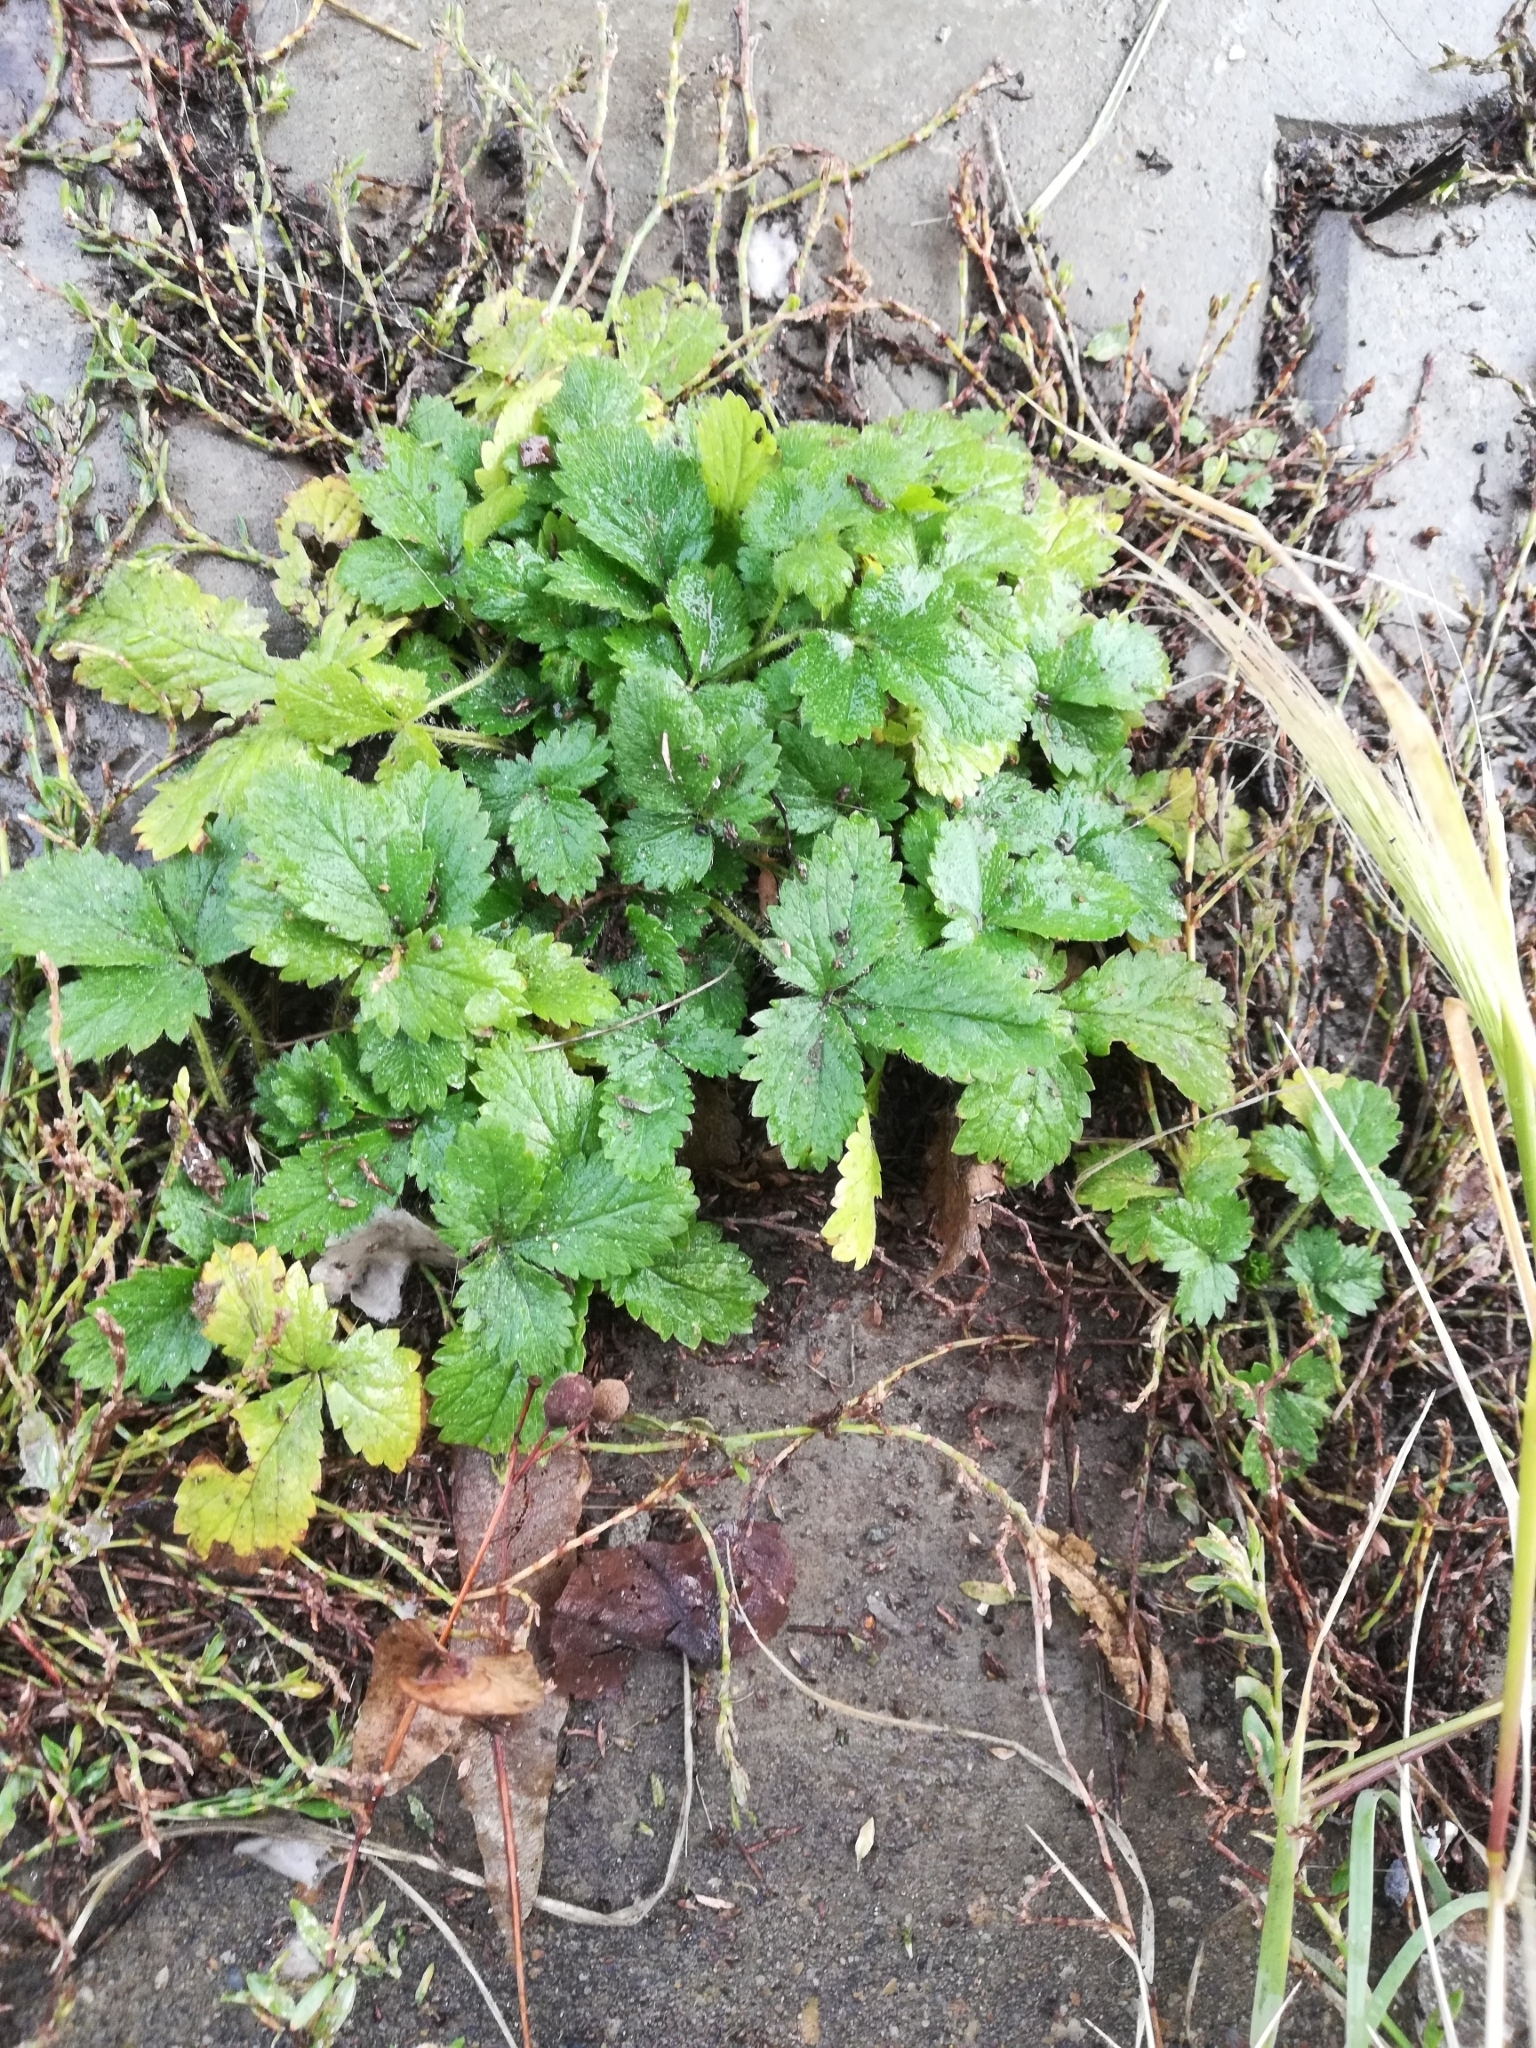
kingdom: Plantae
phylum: Tracheophyta
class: Magnoliopsida
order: Rosales
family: Rosaceae
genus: Potentilla
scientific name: Potentilla norvegica
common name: Ternate-leaved cinquefoil
